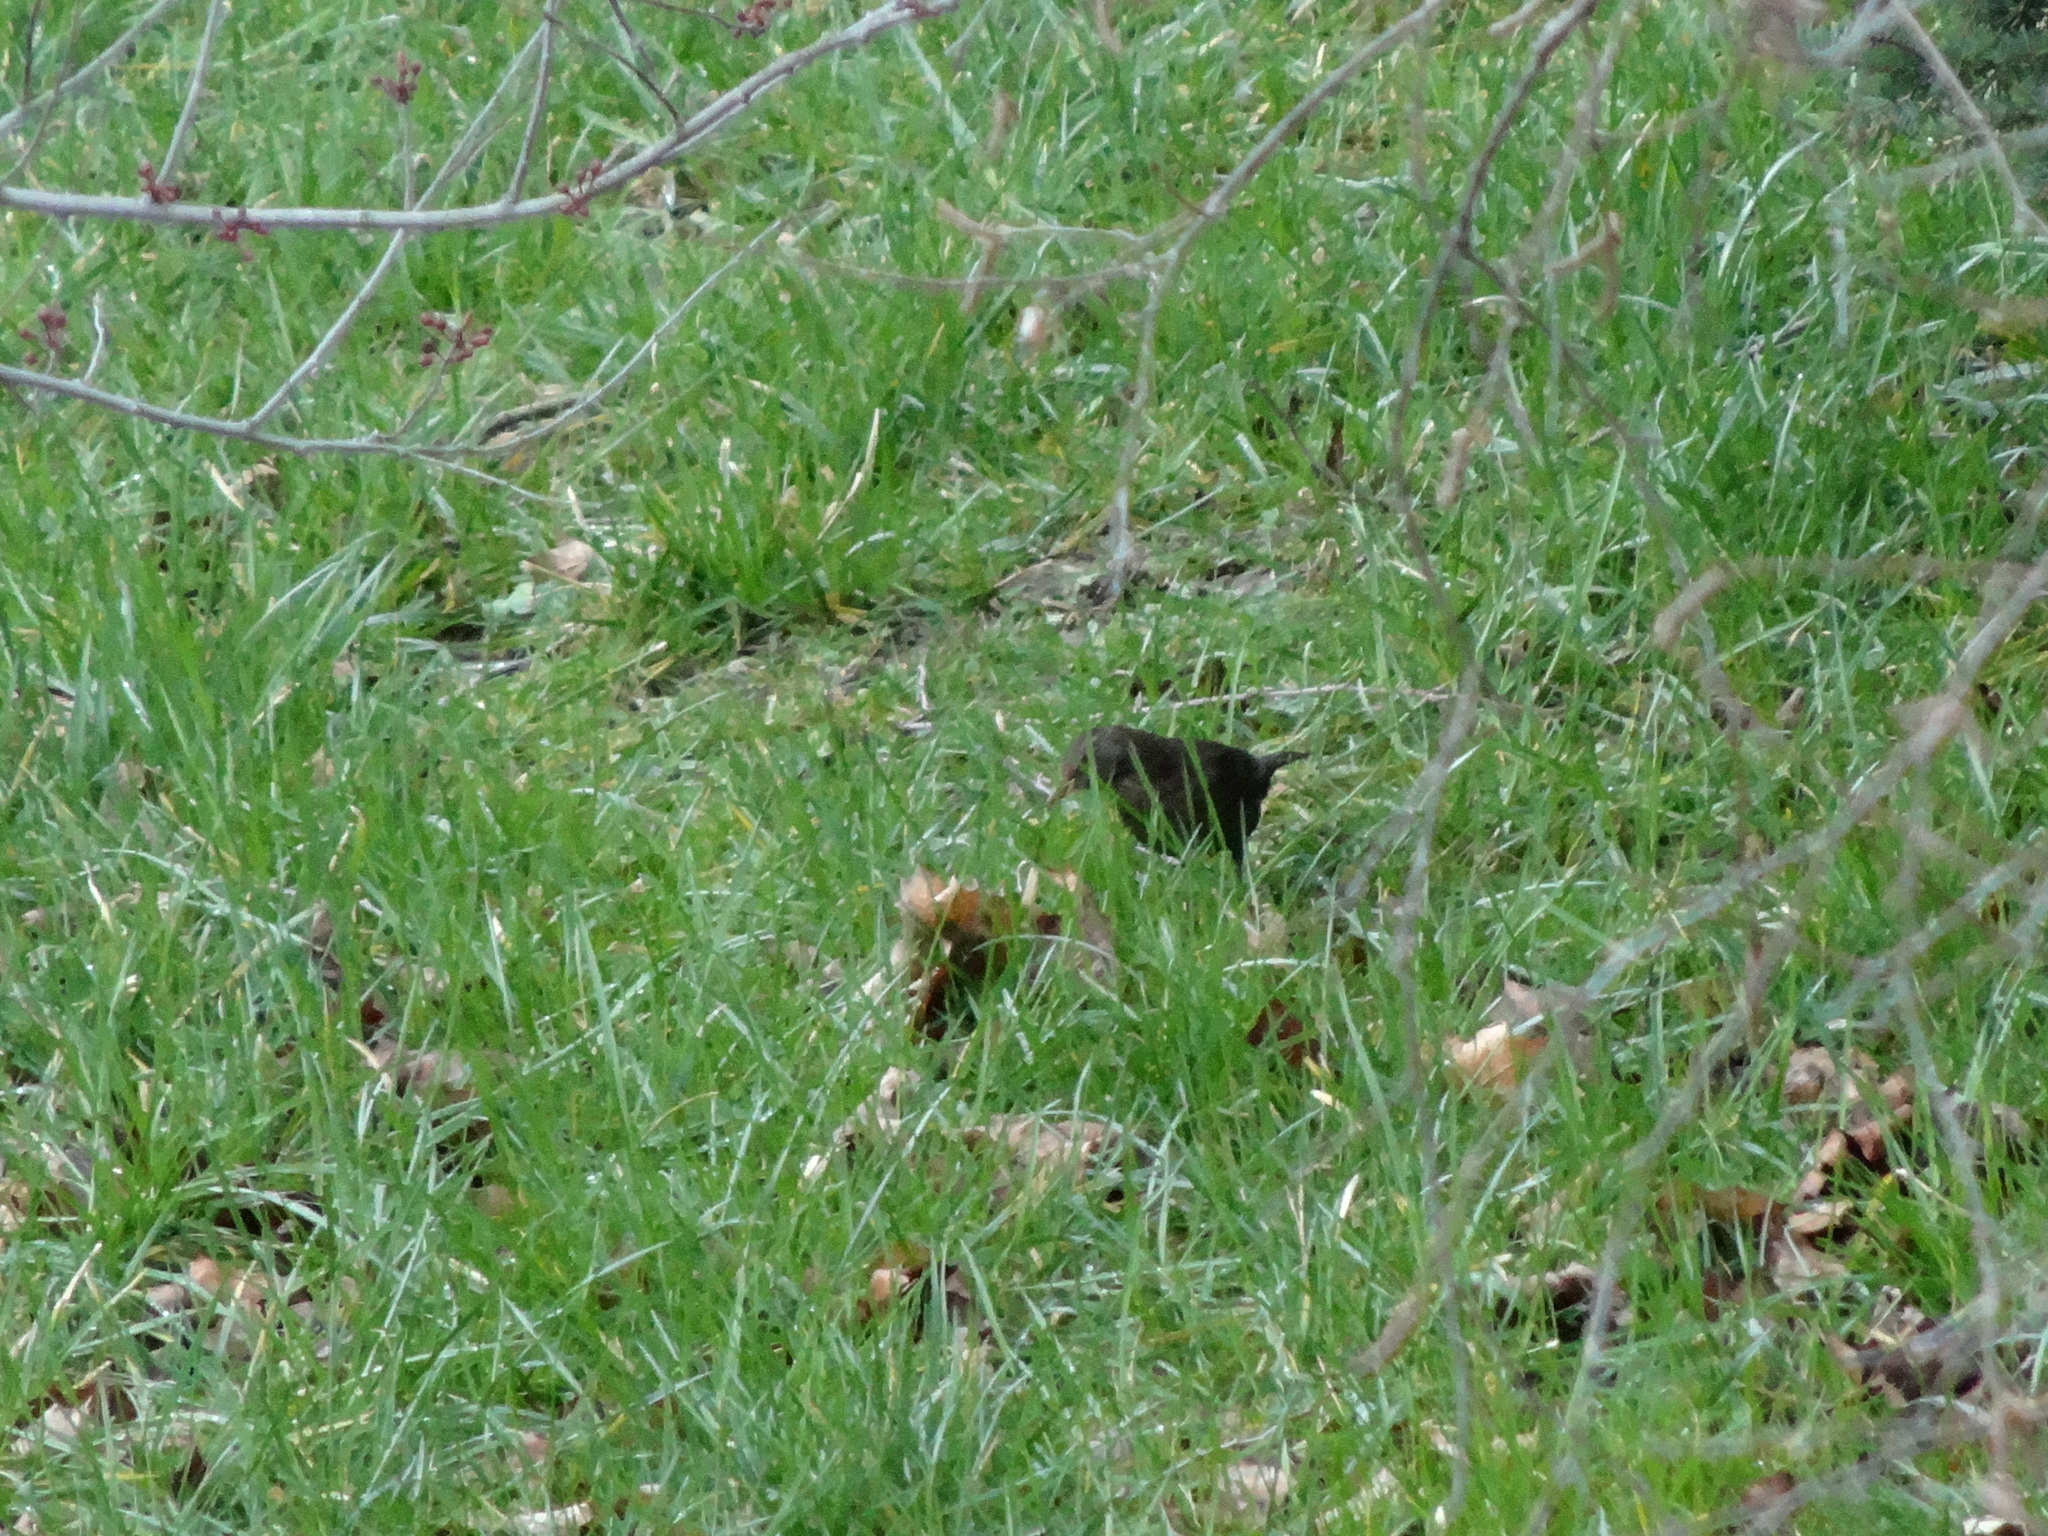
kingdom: Animalia
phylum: Chordata
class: Aves
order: Passeriformes
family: Turdidae
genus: Turdus
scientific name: Turdus merula
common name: Common blackbird
